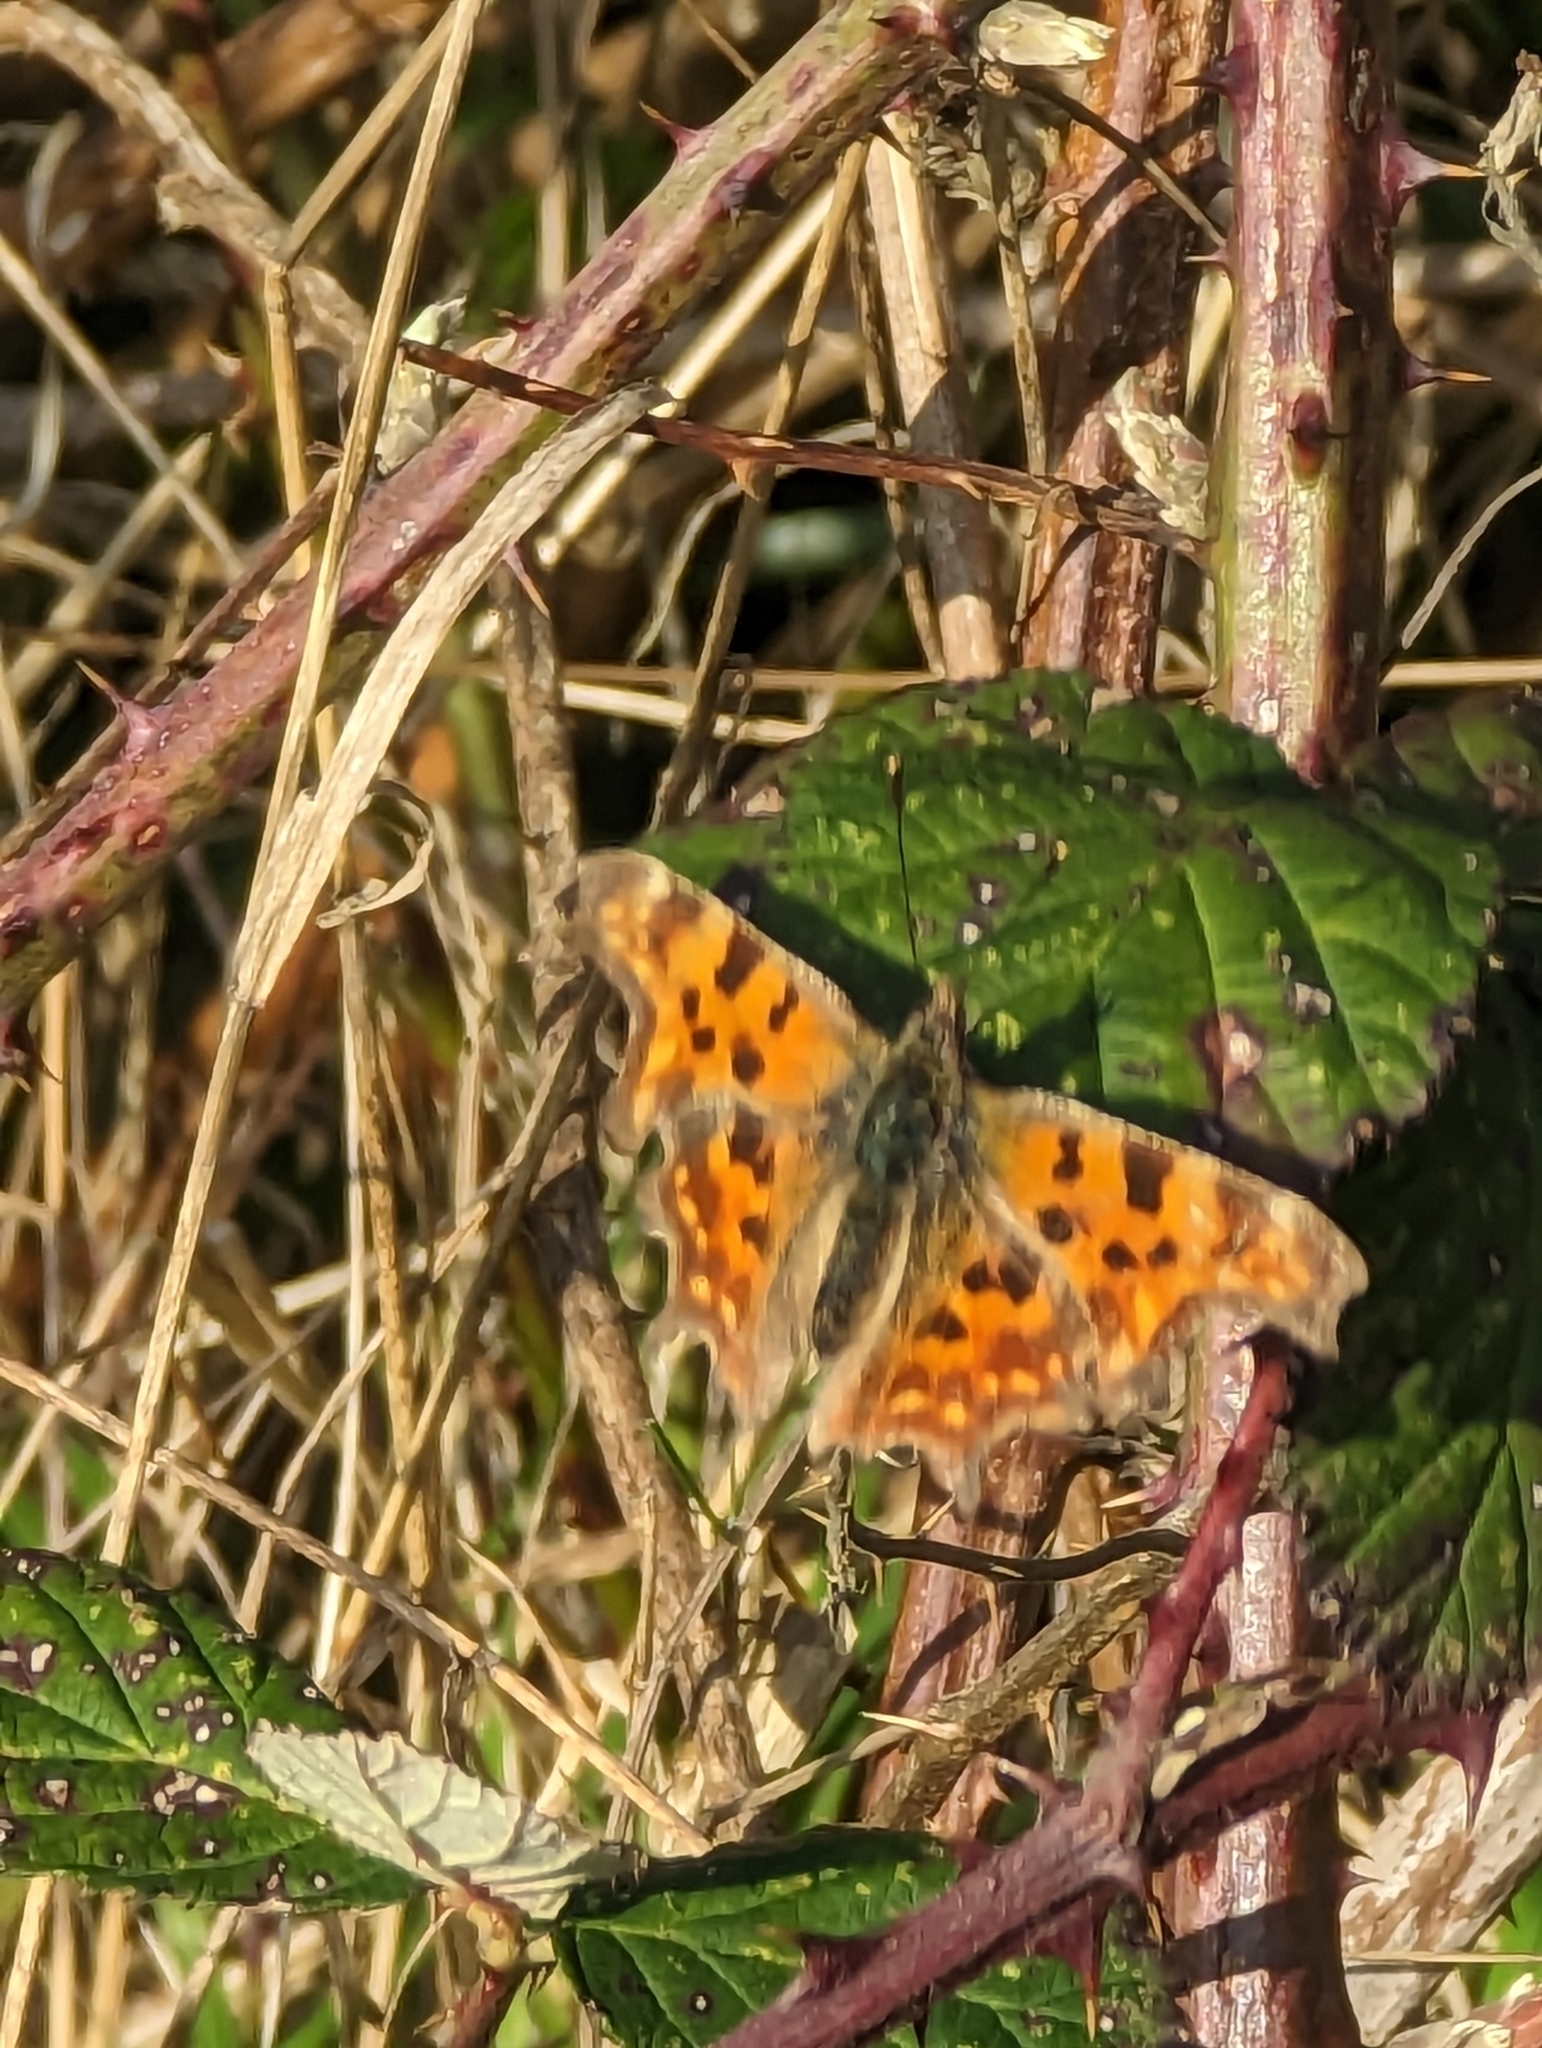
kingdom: Animalia
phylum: Arthropoda
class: Insecta
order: Lepidoptera
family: Nymphalidae
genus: Polygonia
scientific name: Polygonia c-album
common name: Comma
